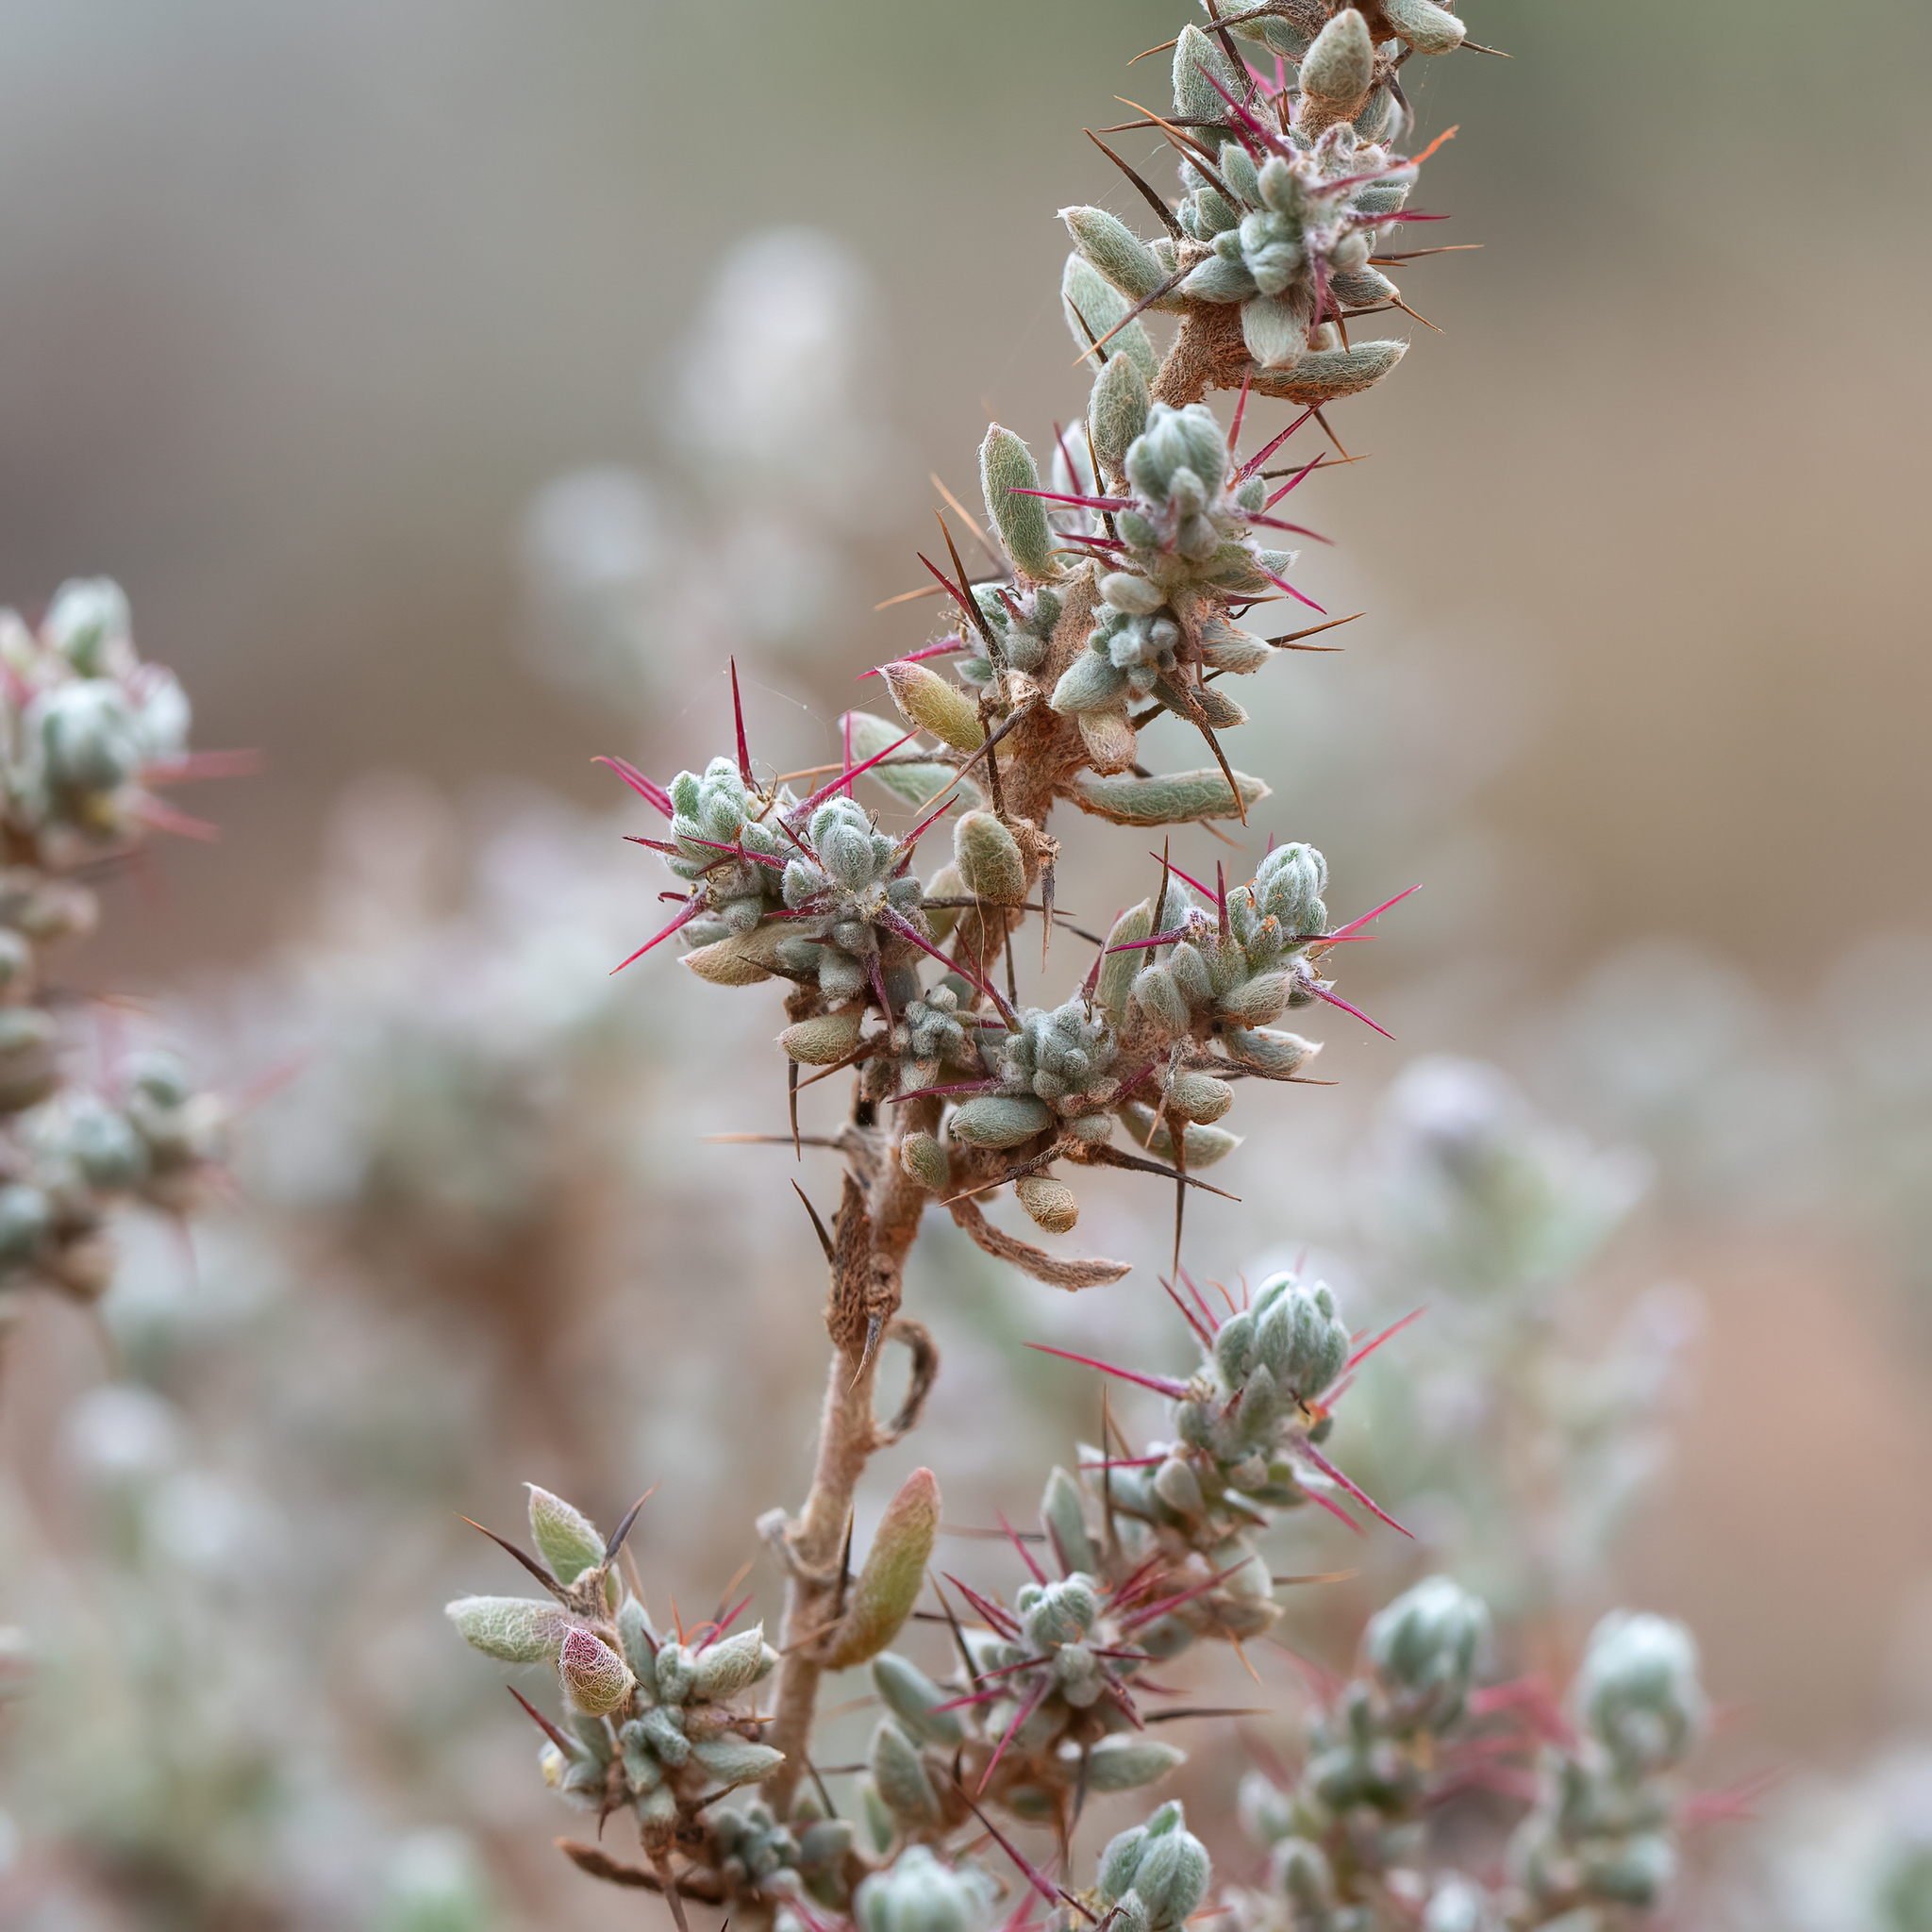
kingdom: Plantae
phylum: Tracheophyta
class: Magnoliopsida
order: Caryophyllales
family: Amaranthaceae
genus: Sclerolaena
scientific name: Sclerolaena obliquicuspis
